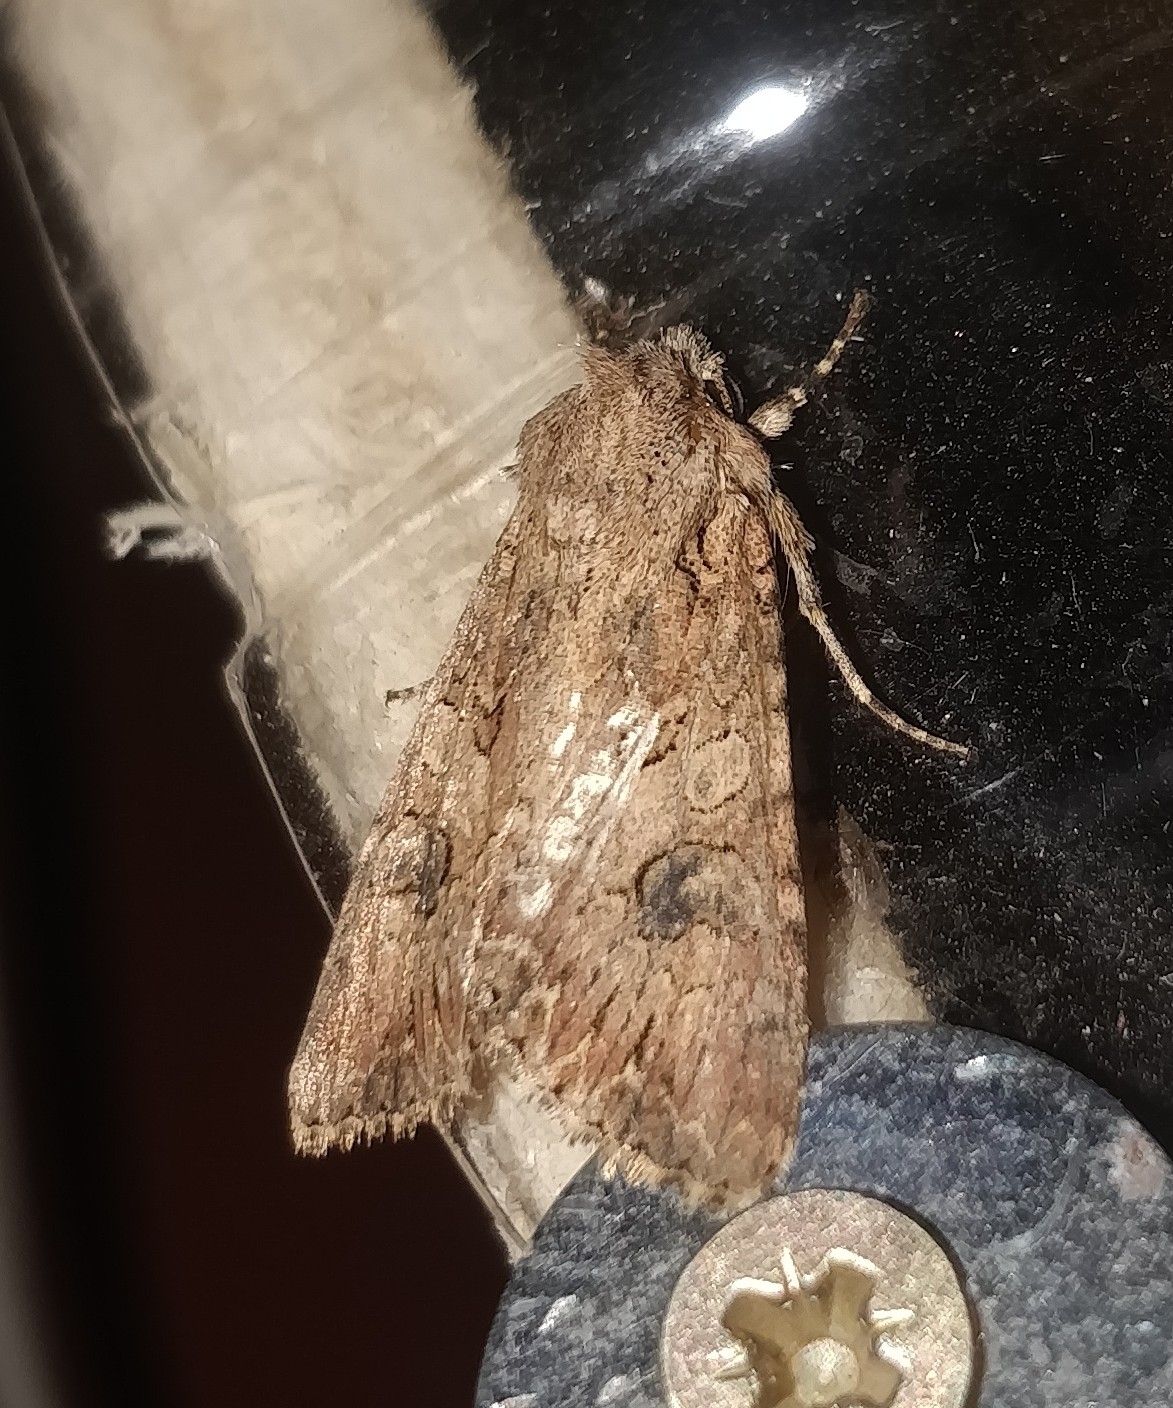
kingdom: Animalia
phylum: Arthropoda
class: Insecta
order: Lepidoptera
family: Noctuidae
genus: Anarta
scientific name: Anarta trifolii
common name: Clover cutworm moth
